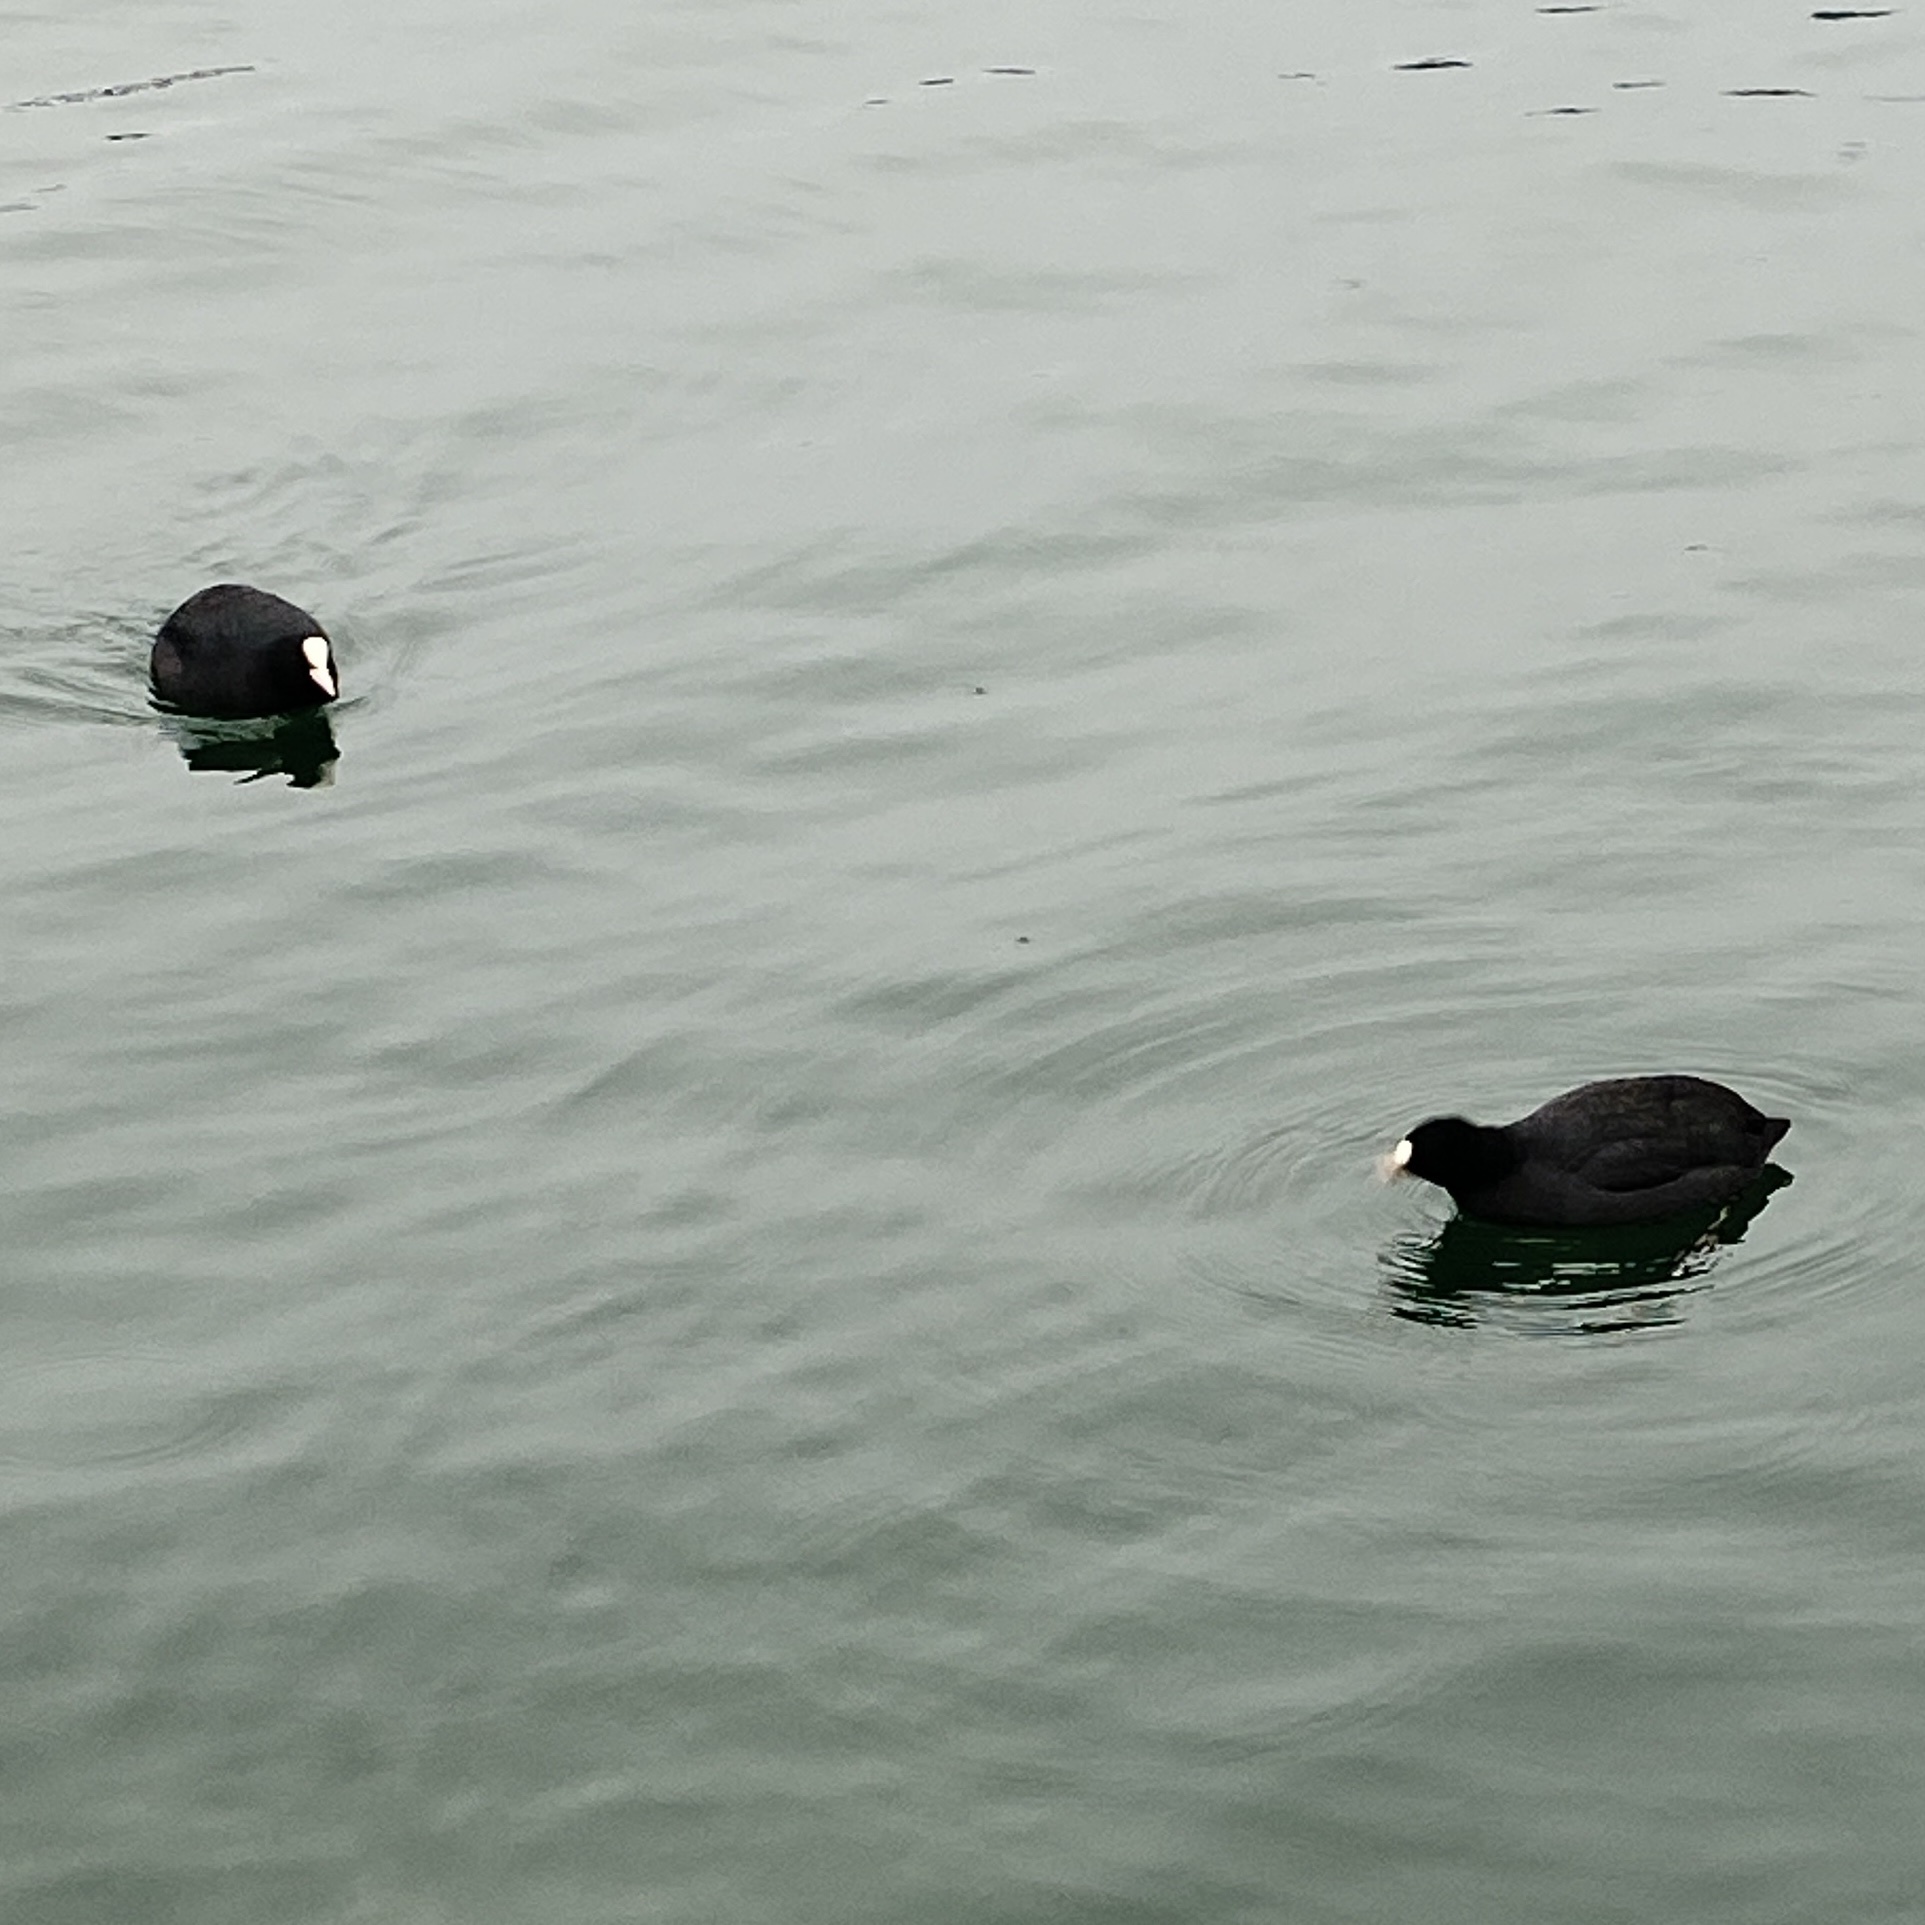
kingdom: Animalia
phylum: Chordata
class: Aves
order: Gruiformes
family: Rallidae
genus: Fulica
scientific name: Fulica atra
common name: Eurasian coot
